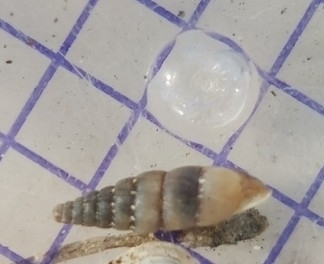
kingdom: Animalia
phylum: Mollusca
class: Gastropoda
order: Stylommatophora
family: Clausiliidae
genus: Papillifera
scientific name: Papillifera papillaris
